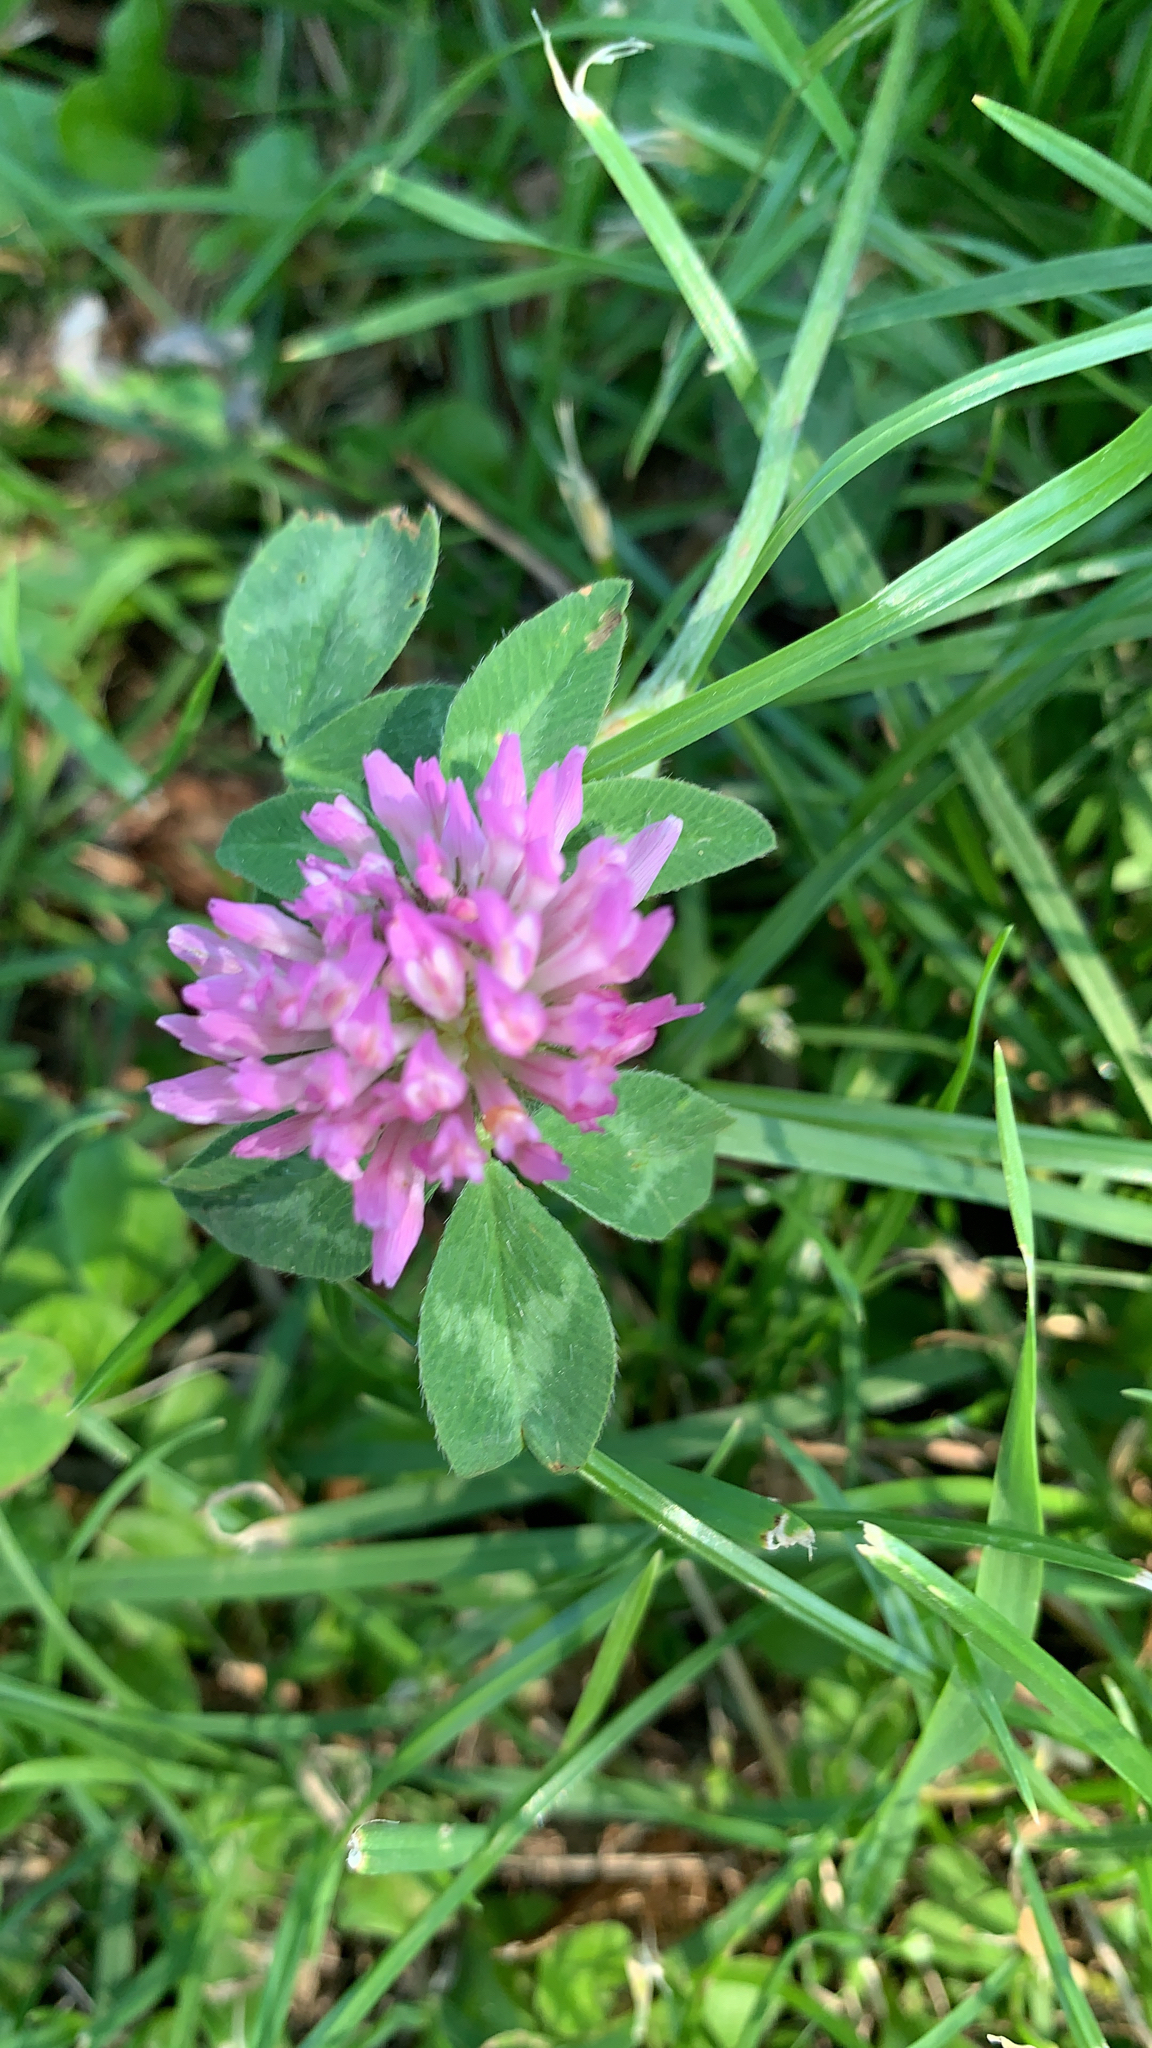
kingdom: Plantae
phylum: Tracheophyta
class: Magnoliopsida
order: Fabales
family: Fabaceae
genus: Trifolium
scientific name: Trifolium pratense
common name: Red clover
